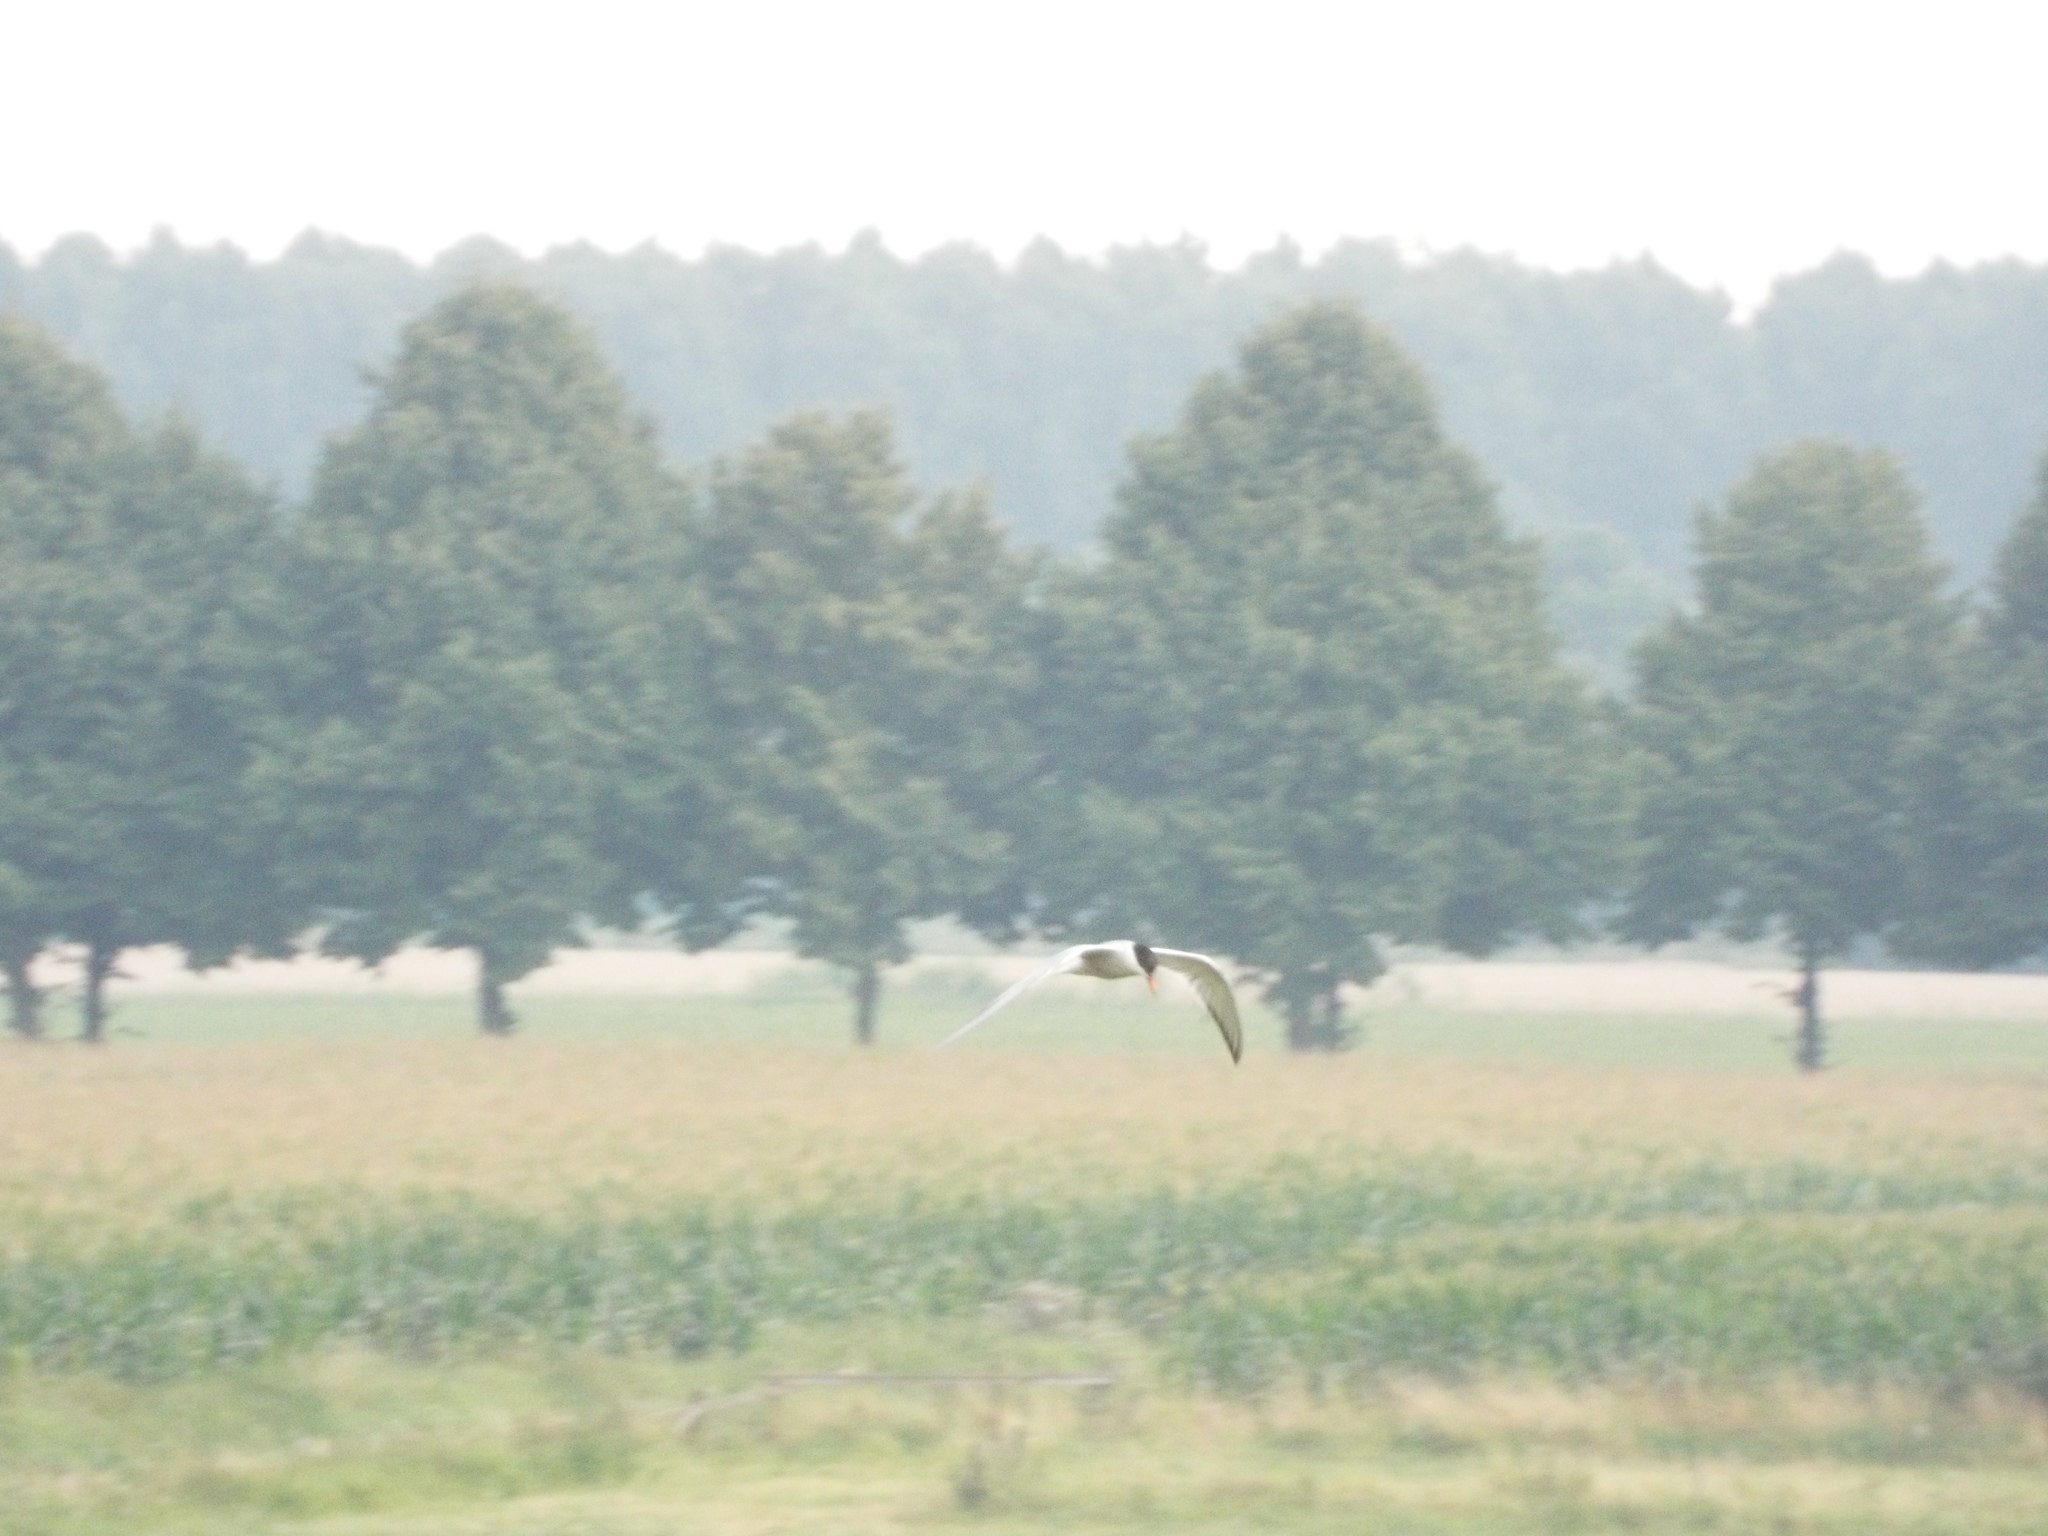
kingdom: Animalia
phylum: Chordata
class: Aves
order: Charadriiformes
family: Laridae
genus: Sterna
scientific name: Sterna hirundo
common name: Common tern
